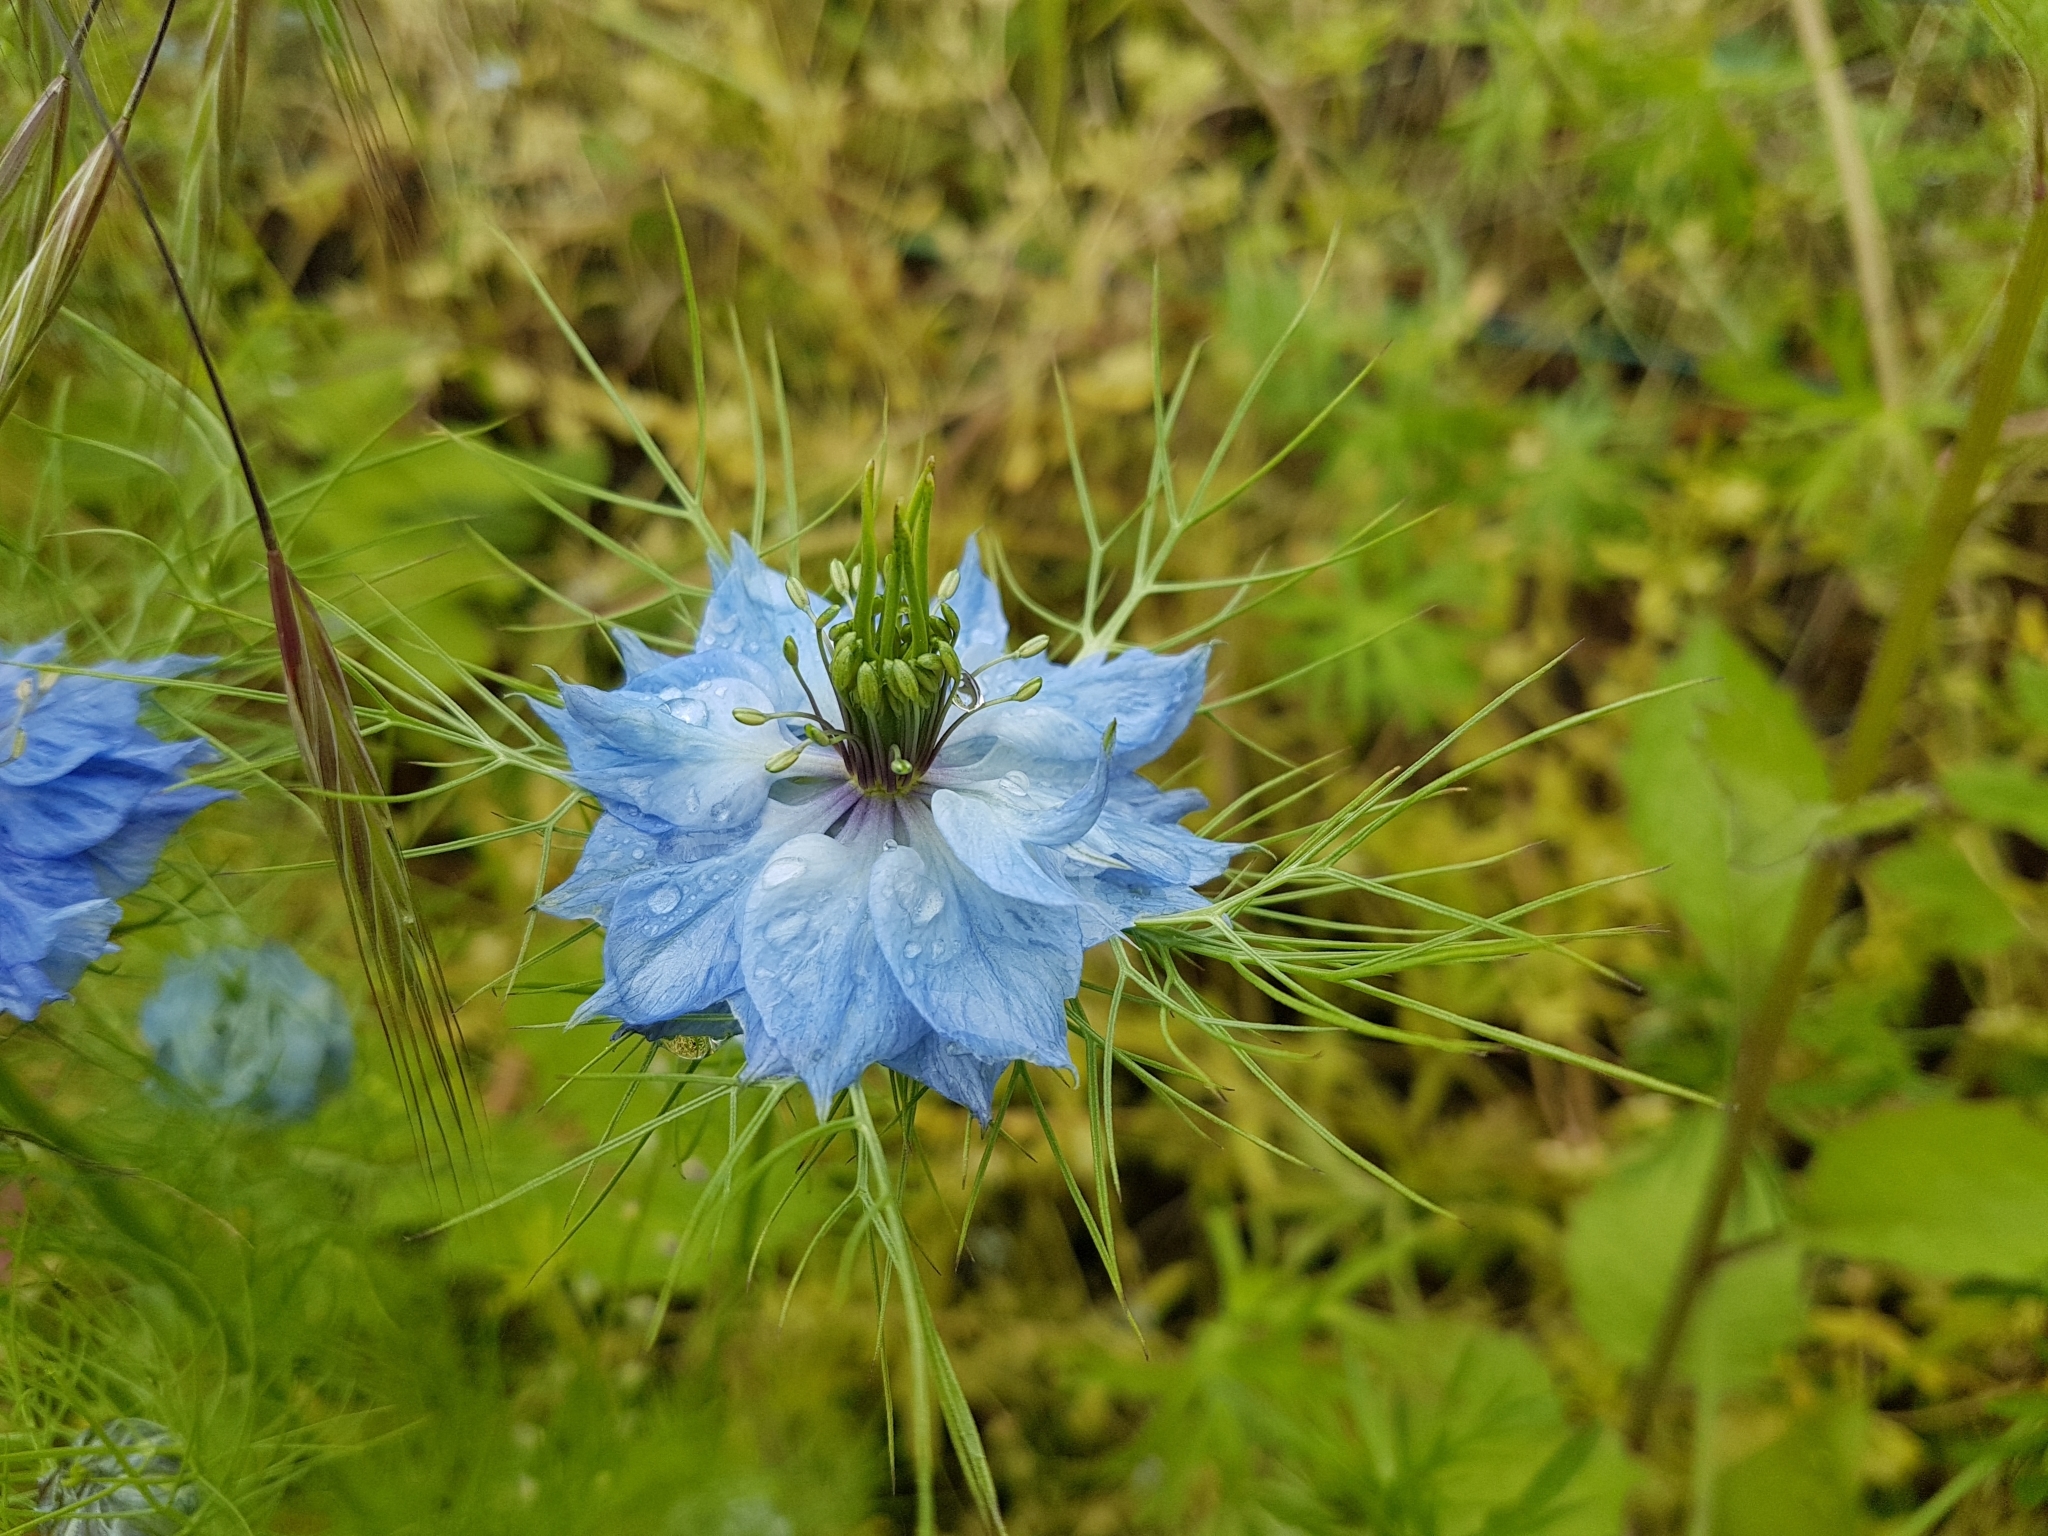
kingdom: Plantae
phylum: Tracheophyta
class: Magnoliopsida
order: Ranunculales
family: Ranunculaceae
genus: Nigella
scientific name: Nigella damascena
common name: Love-in-a-mist
